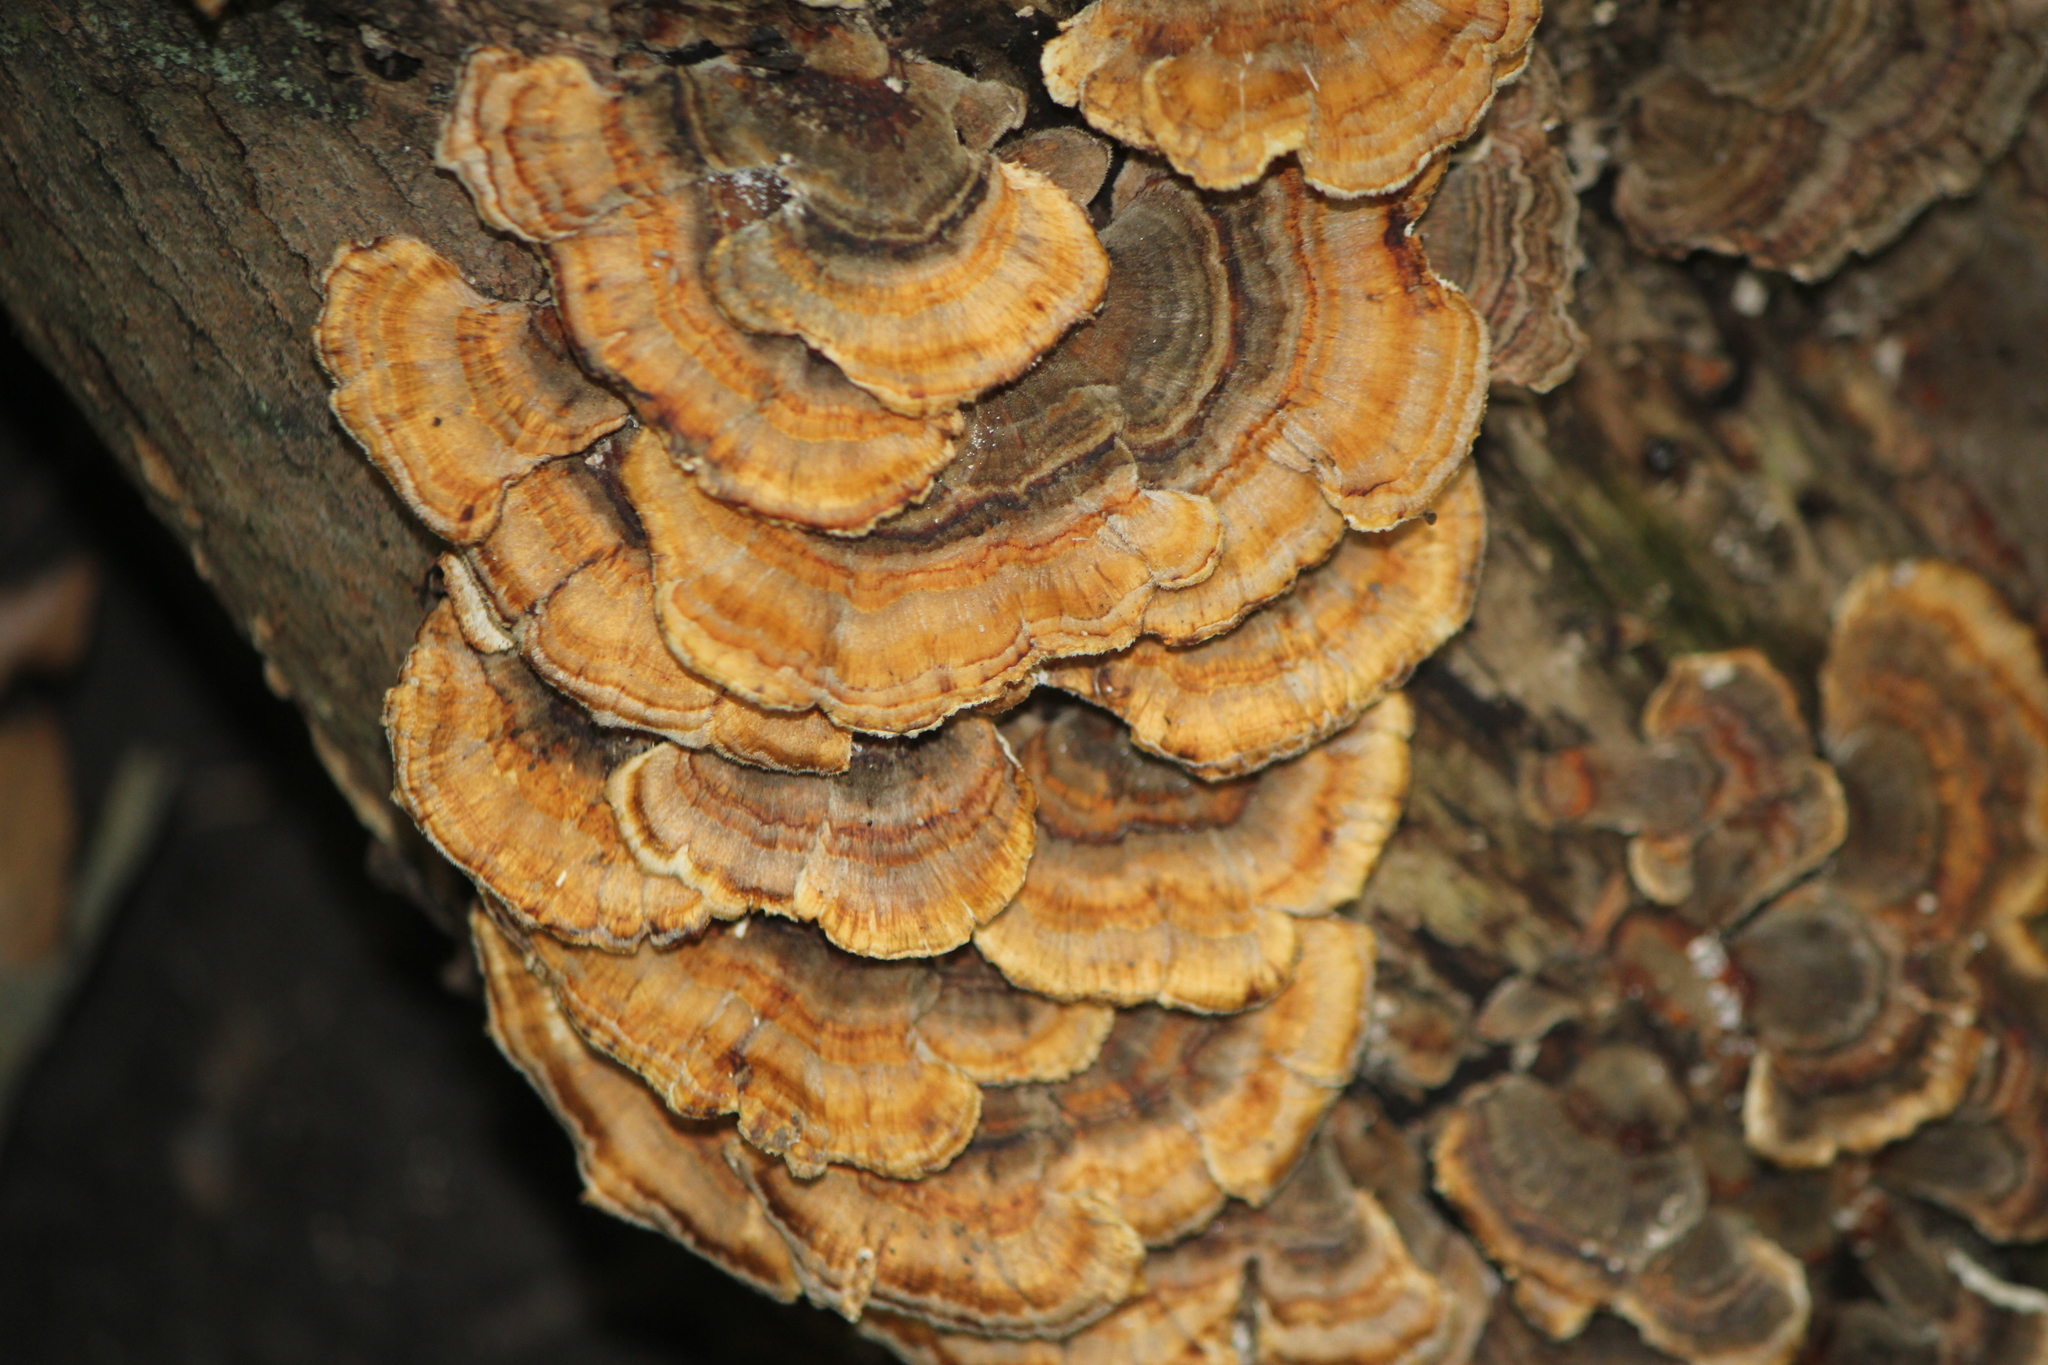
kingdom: Fungi
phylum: Basidiomycota
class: Agaricomycetes
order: Polyporales
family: Polyporaceae
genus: Trametes
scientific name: Trametes versicolor
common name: Turkeytail
